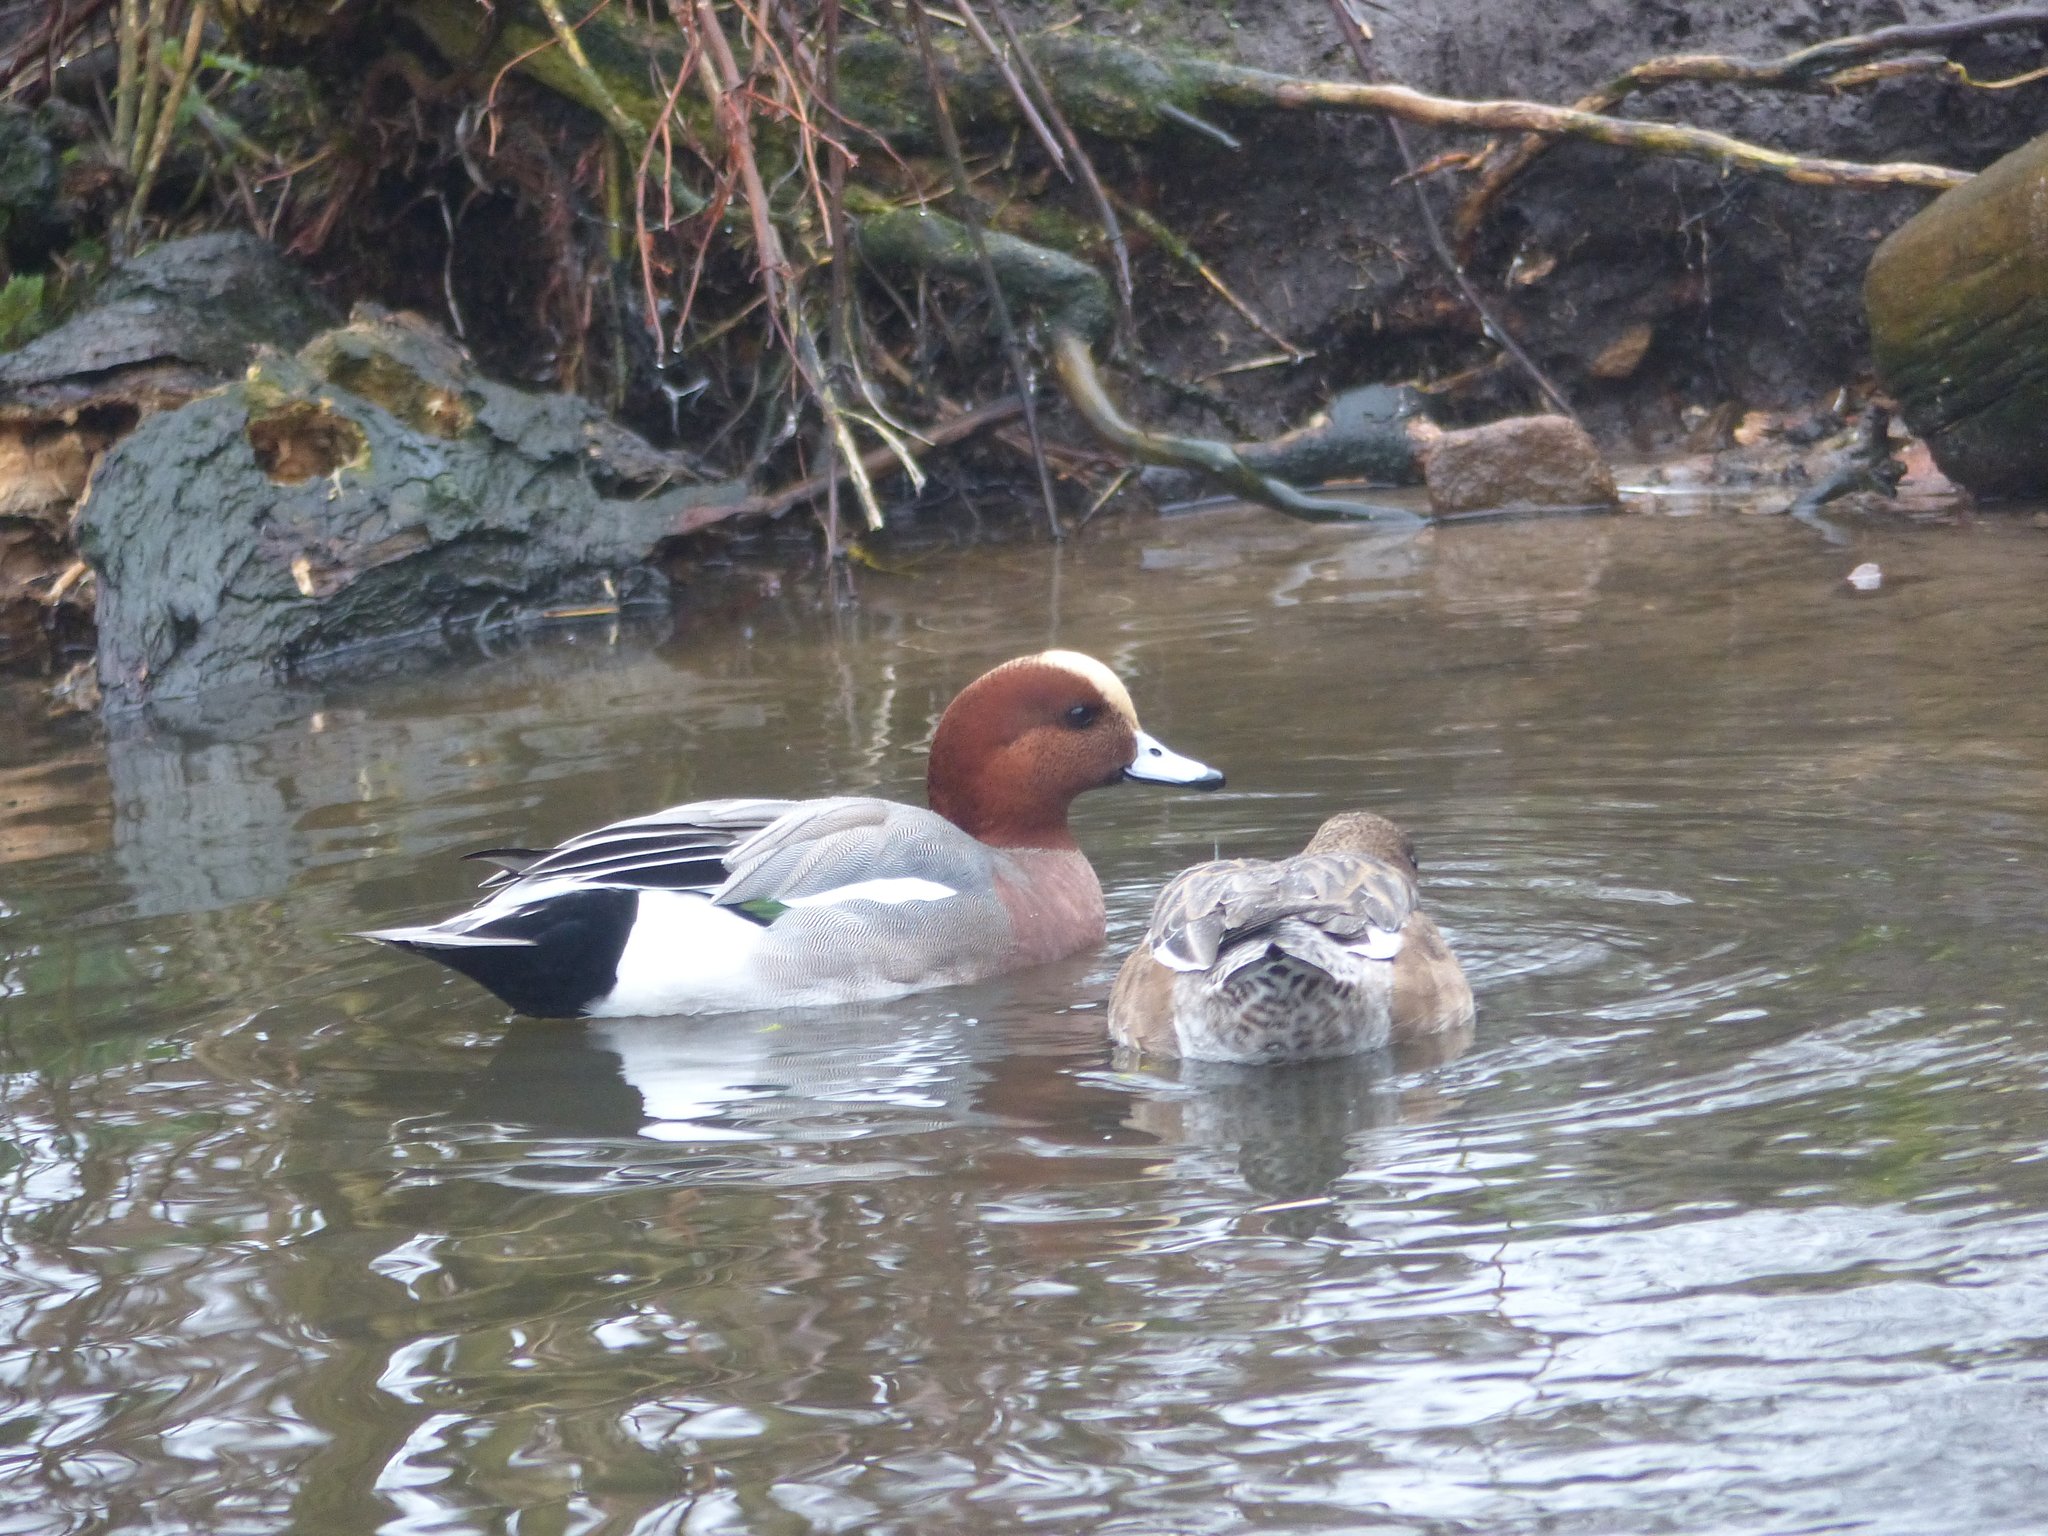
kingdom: Animalia
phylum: Chordata
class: Aves
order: Anseriformes
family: Anatidae
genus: Mareca
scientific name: Mareca penelope
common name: Eurasian wigeon
